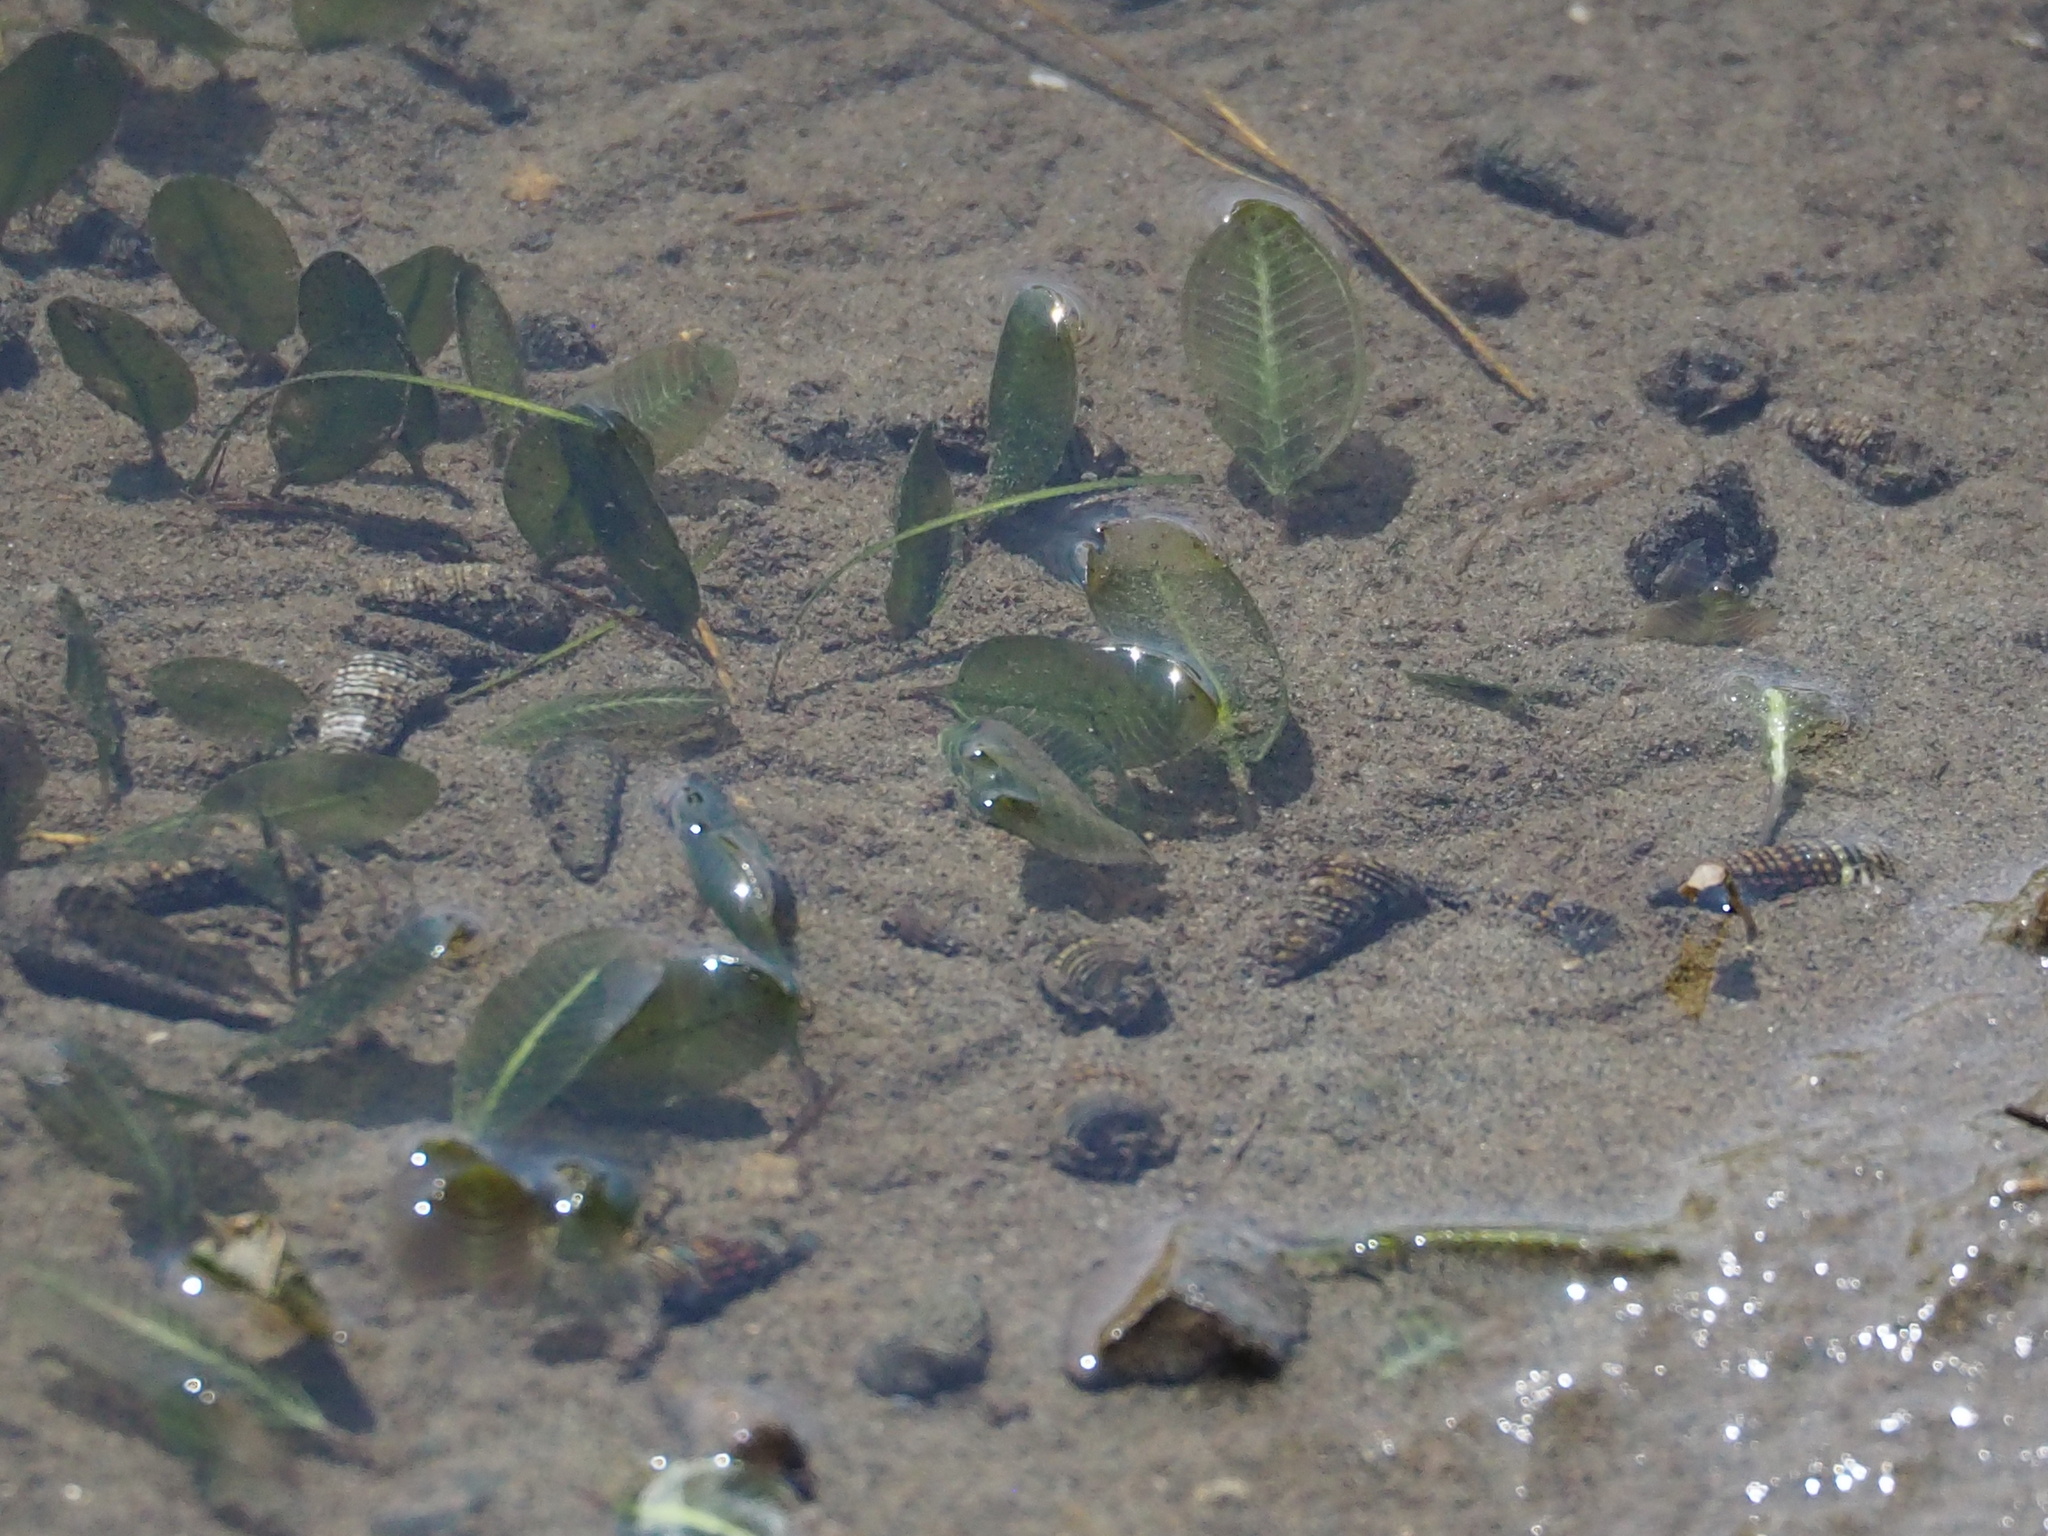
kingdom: Plantae
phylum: Tracheophyta
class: Liliopsida
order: Alismatales
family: Hydrocharitaceae
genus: Halophila
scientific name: Halophila ovalis
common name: Species code: ho
